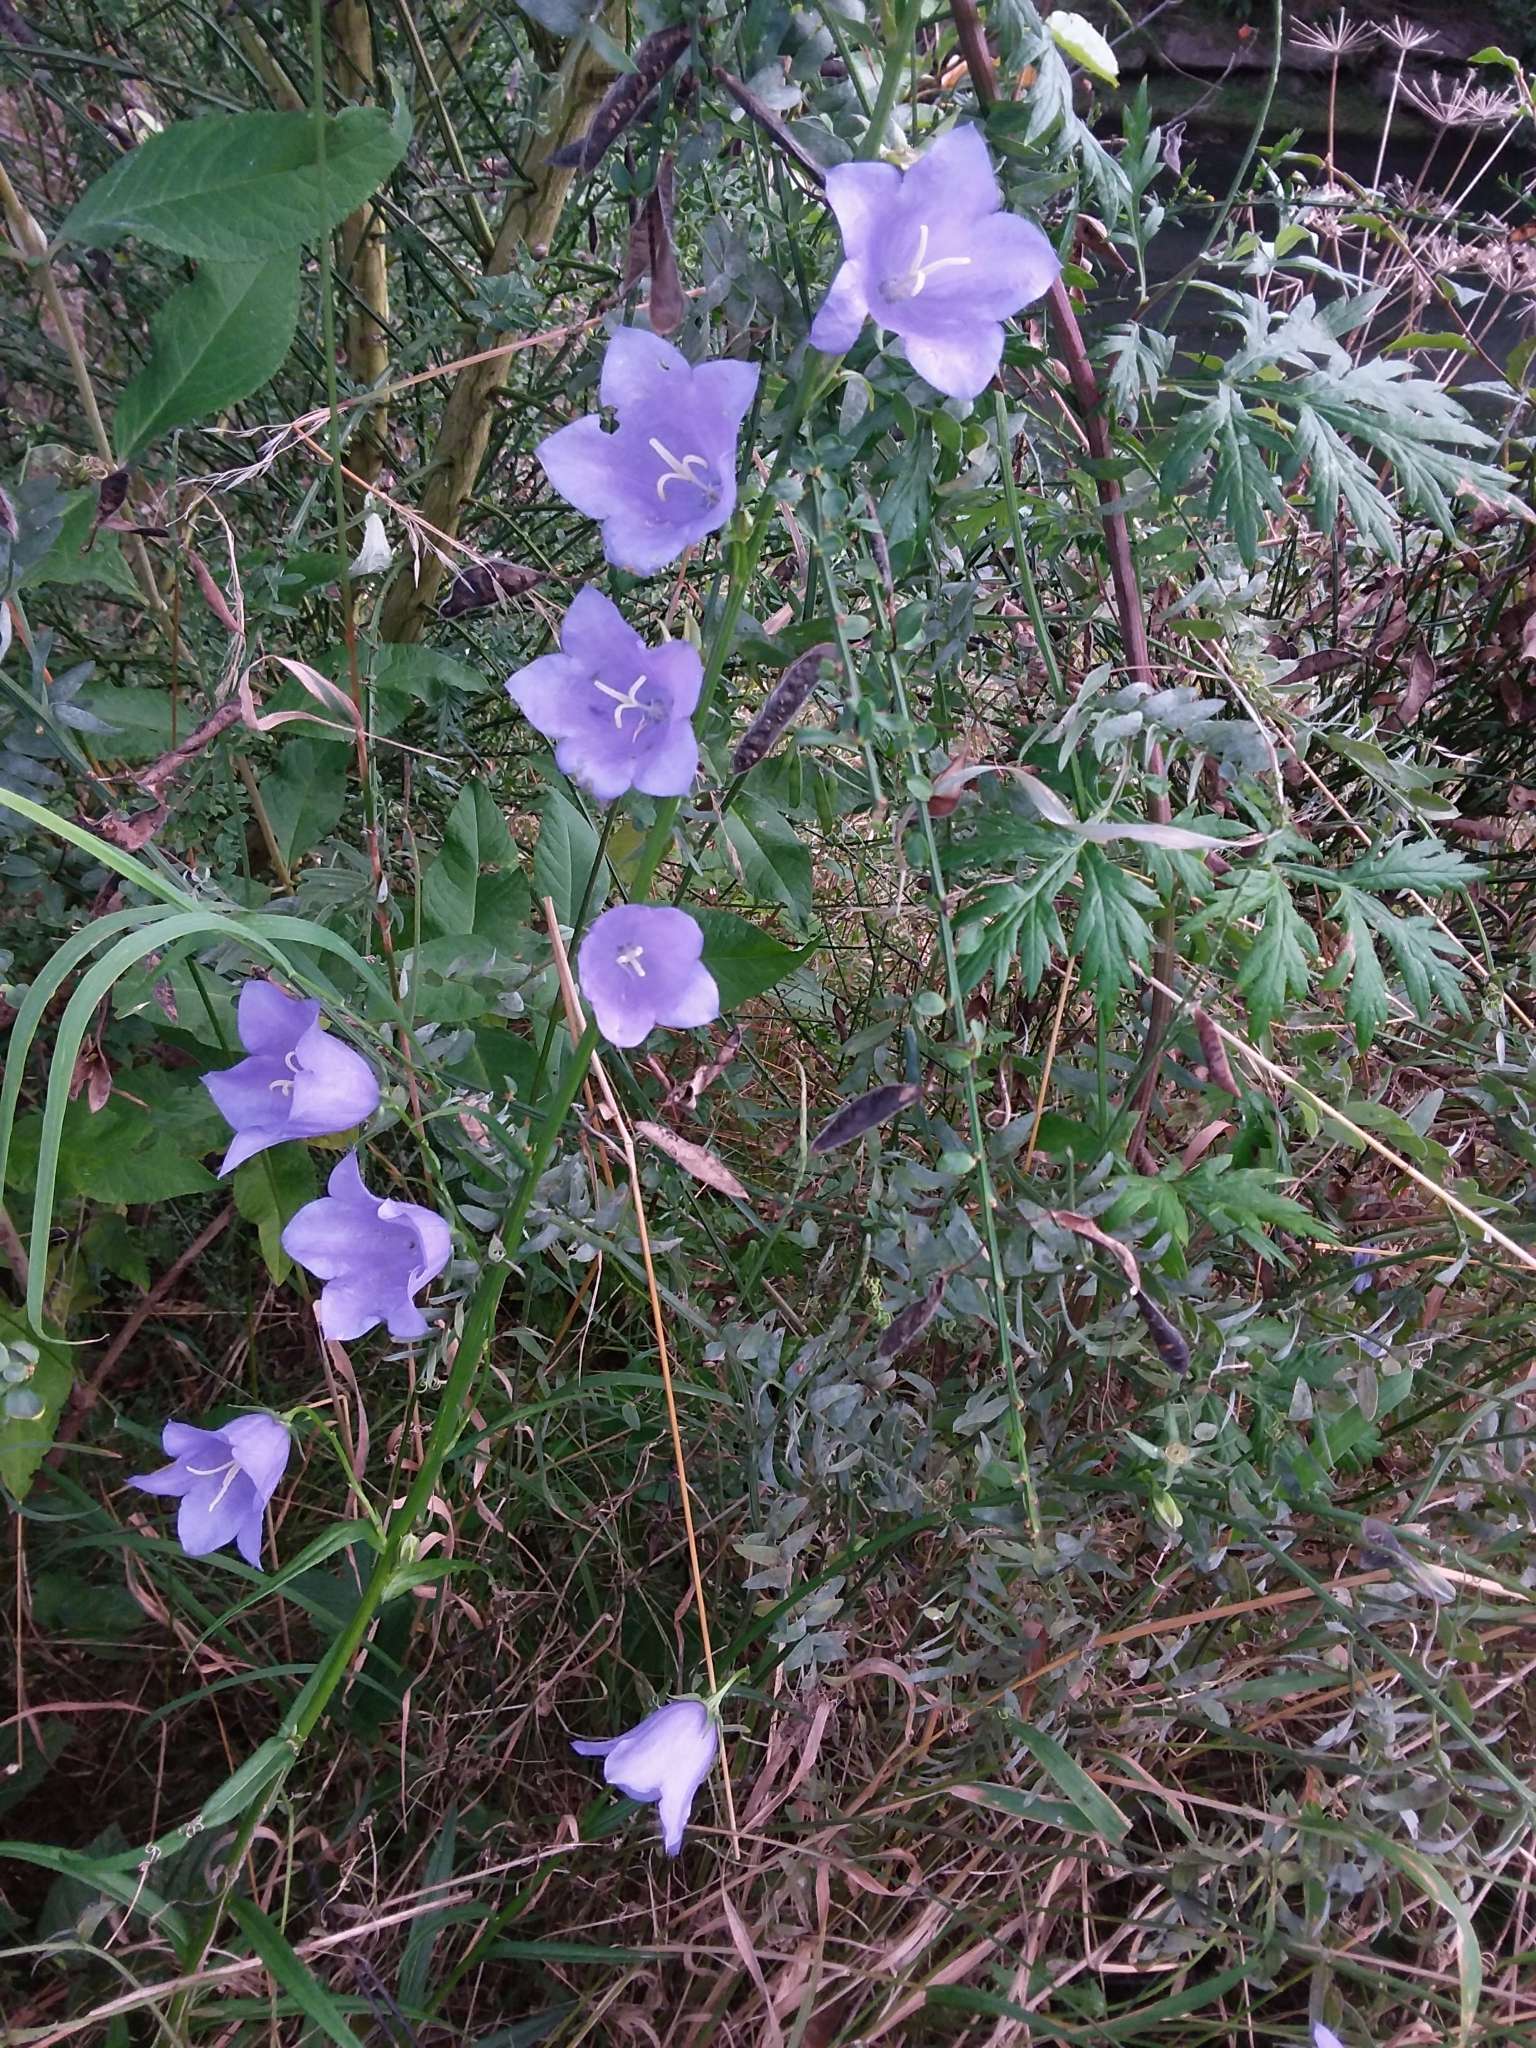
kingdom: Plantae
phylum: Tracheophyta
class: Magnoliopsida
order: Asterales
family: Campanulaceae
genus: Campanula
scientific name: Campanula persicifolia
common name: Peach-leaved bellflower
